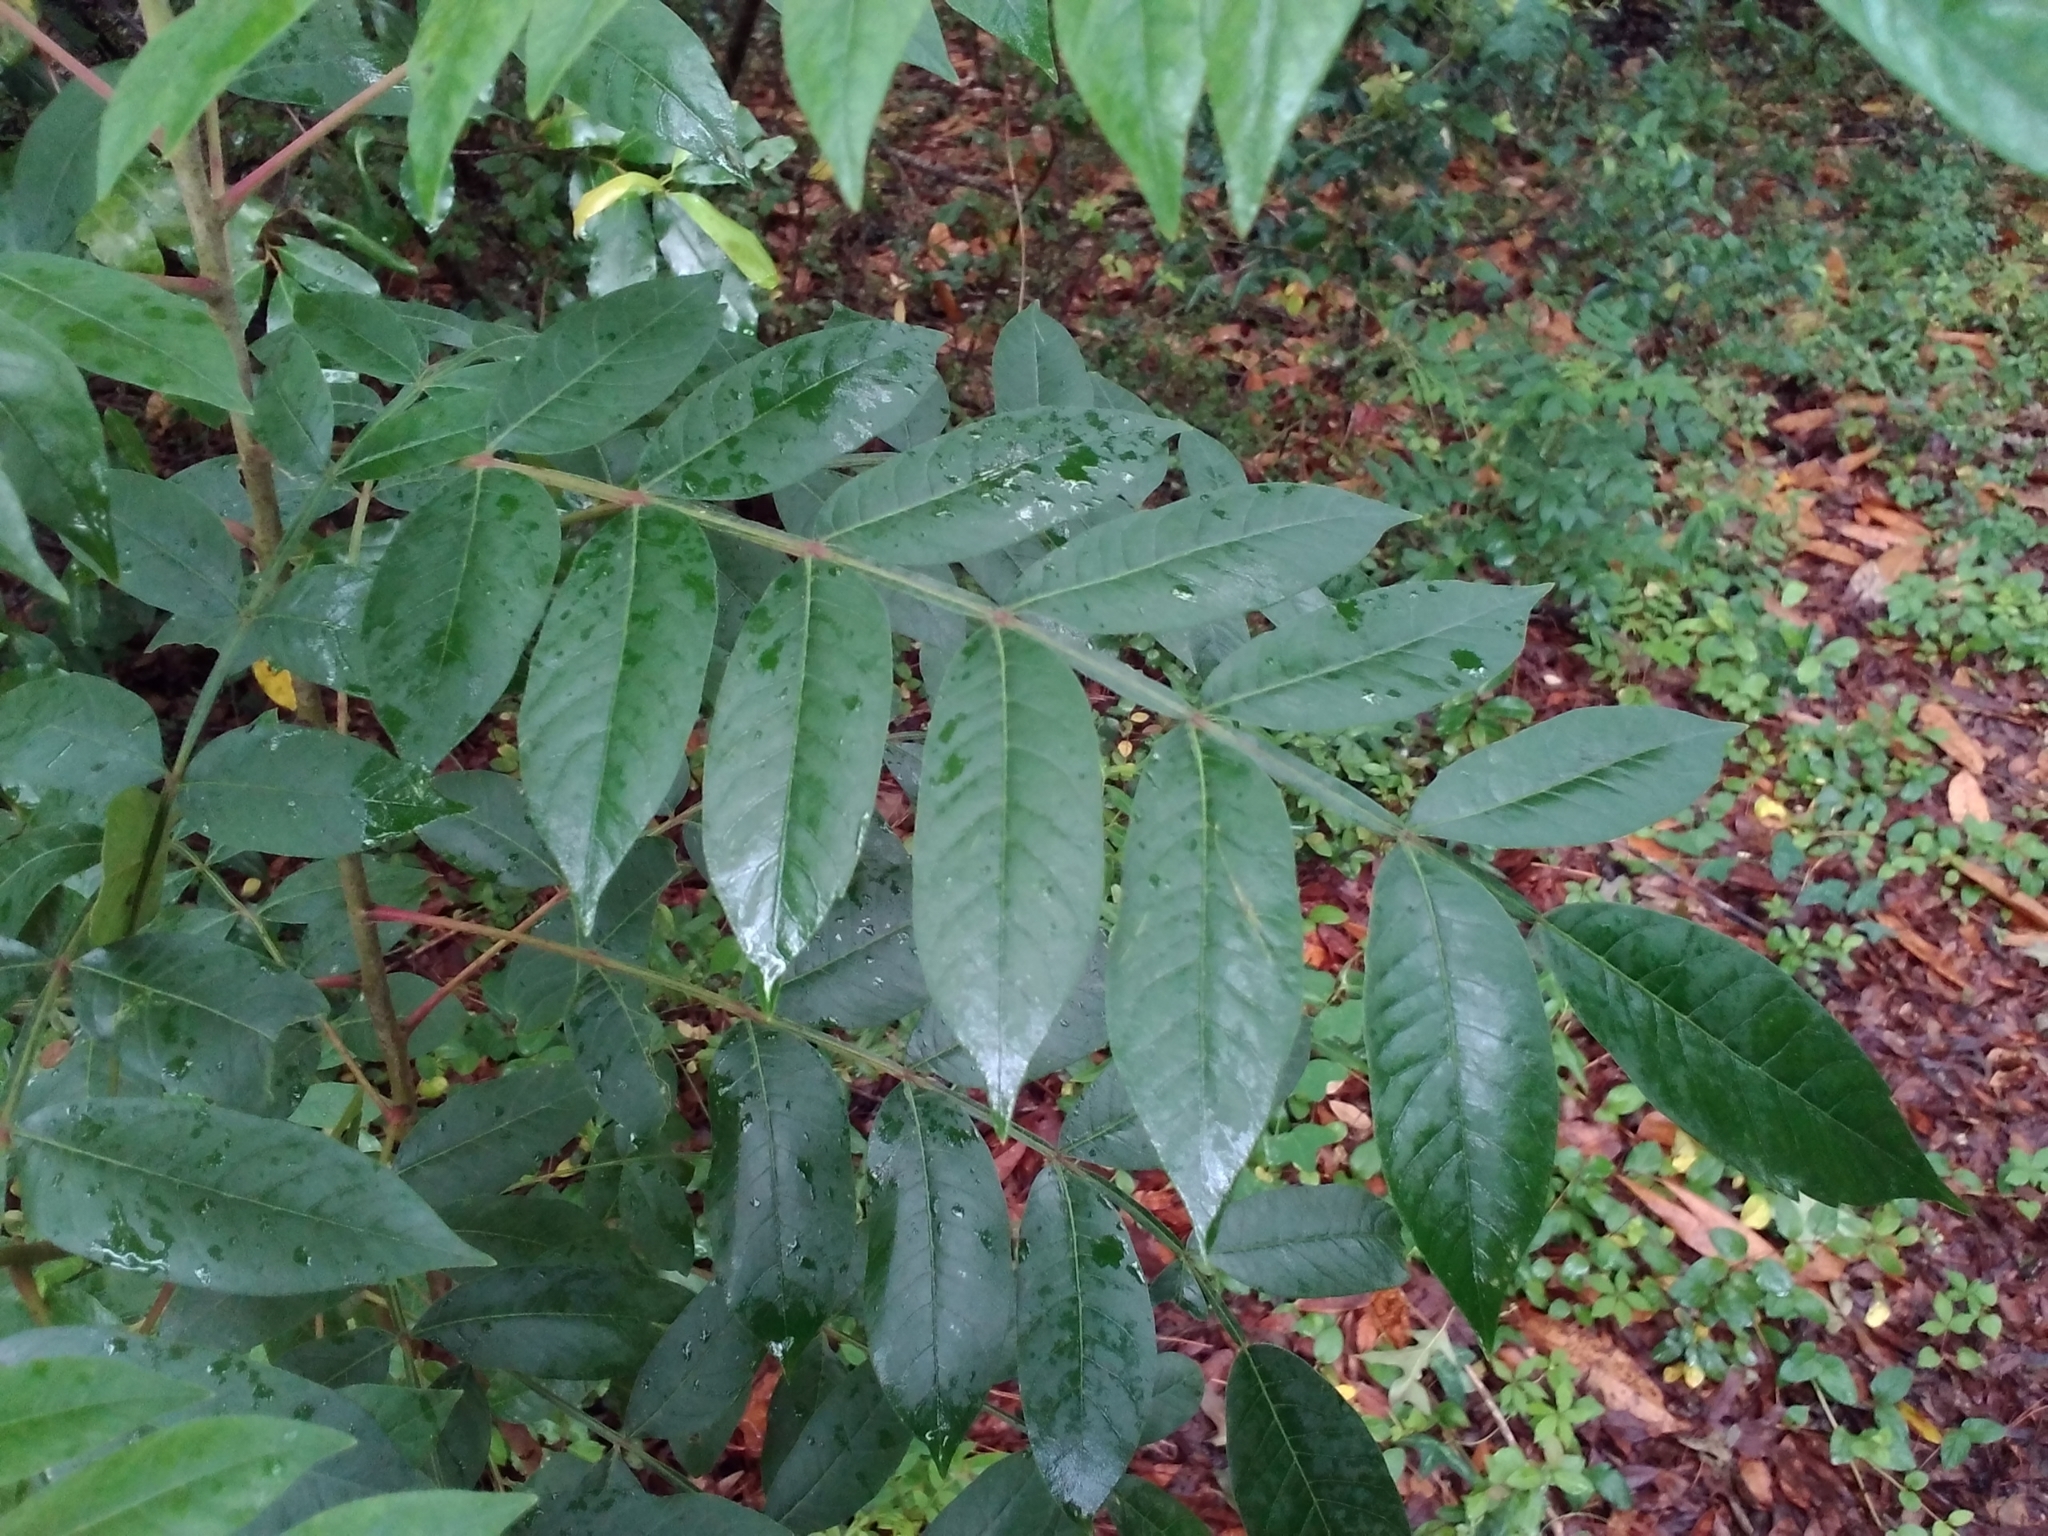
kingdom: Plantae
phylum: Tracheophyta
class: Magnoliopsida
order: Sapindales
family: Anacardiaceae
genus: Rhus
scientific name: Rhus copallina
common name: Shining sumac
